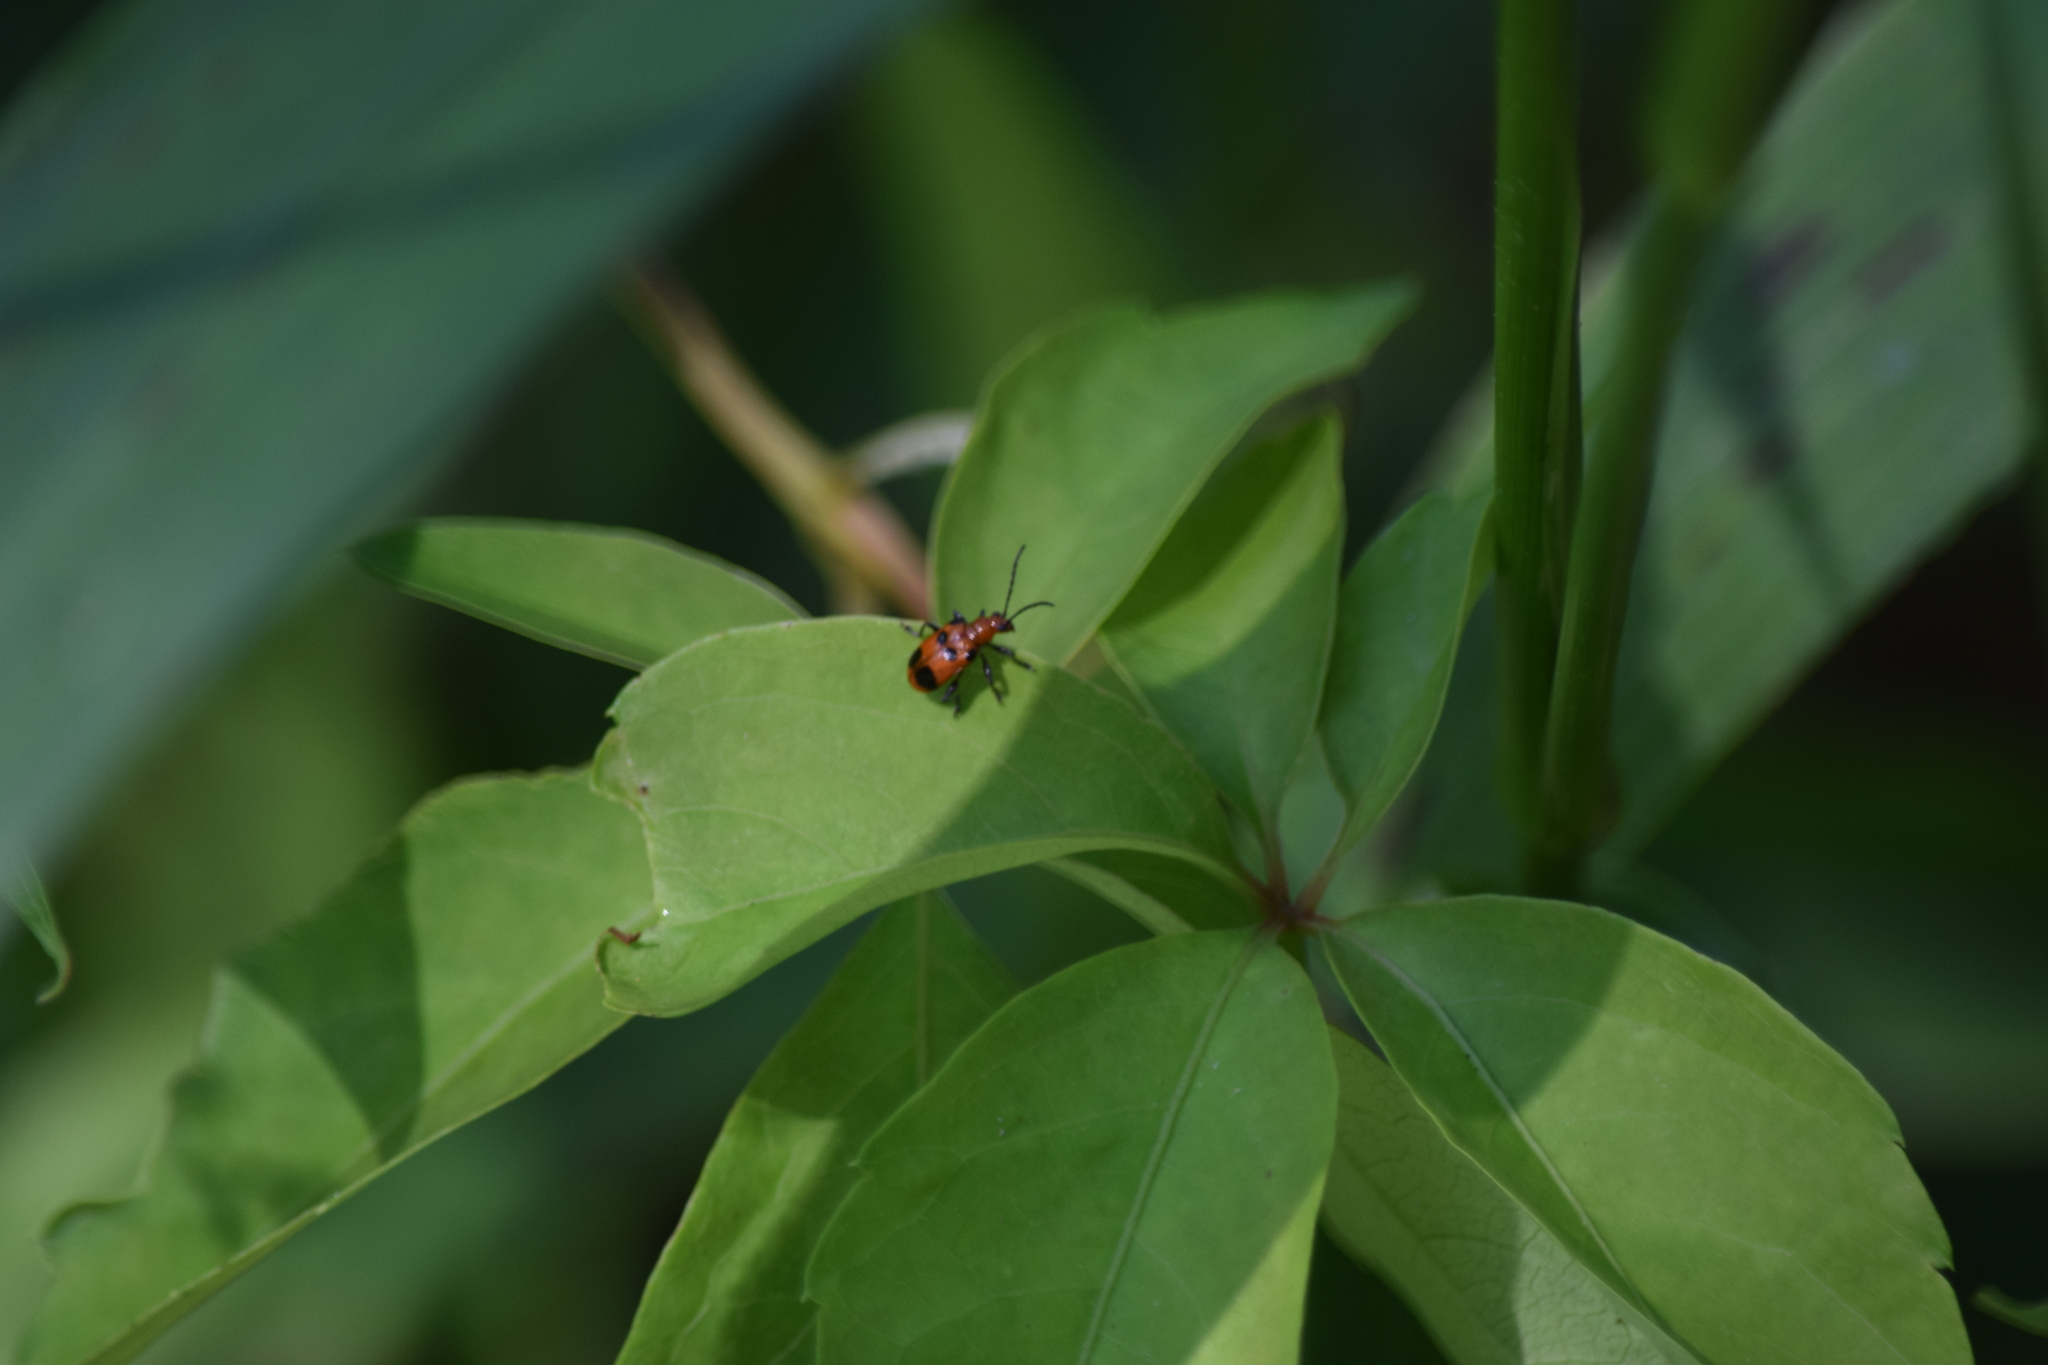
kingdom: Animalia
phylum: Arthropoda
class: Insecta
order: Coleoptera
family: Chrysomelidae
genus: Neolema
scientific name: Neolema sexpunctata
